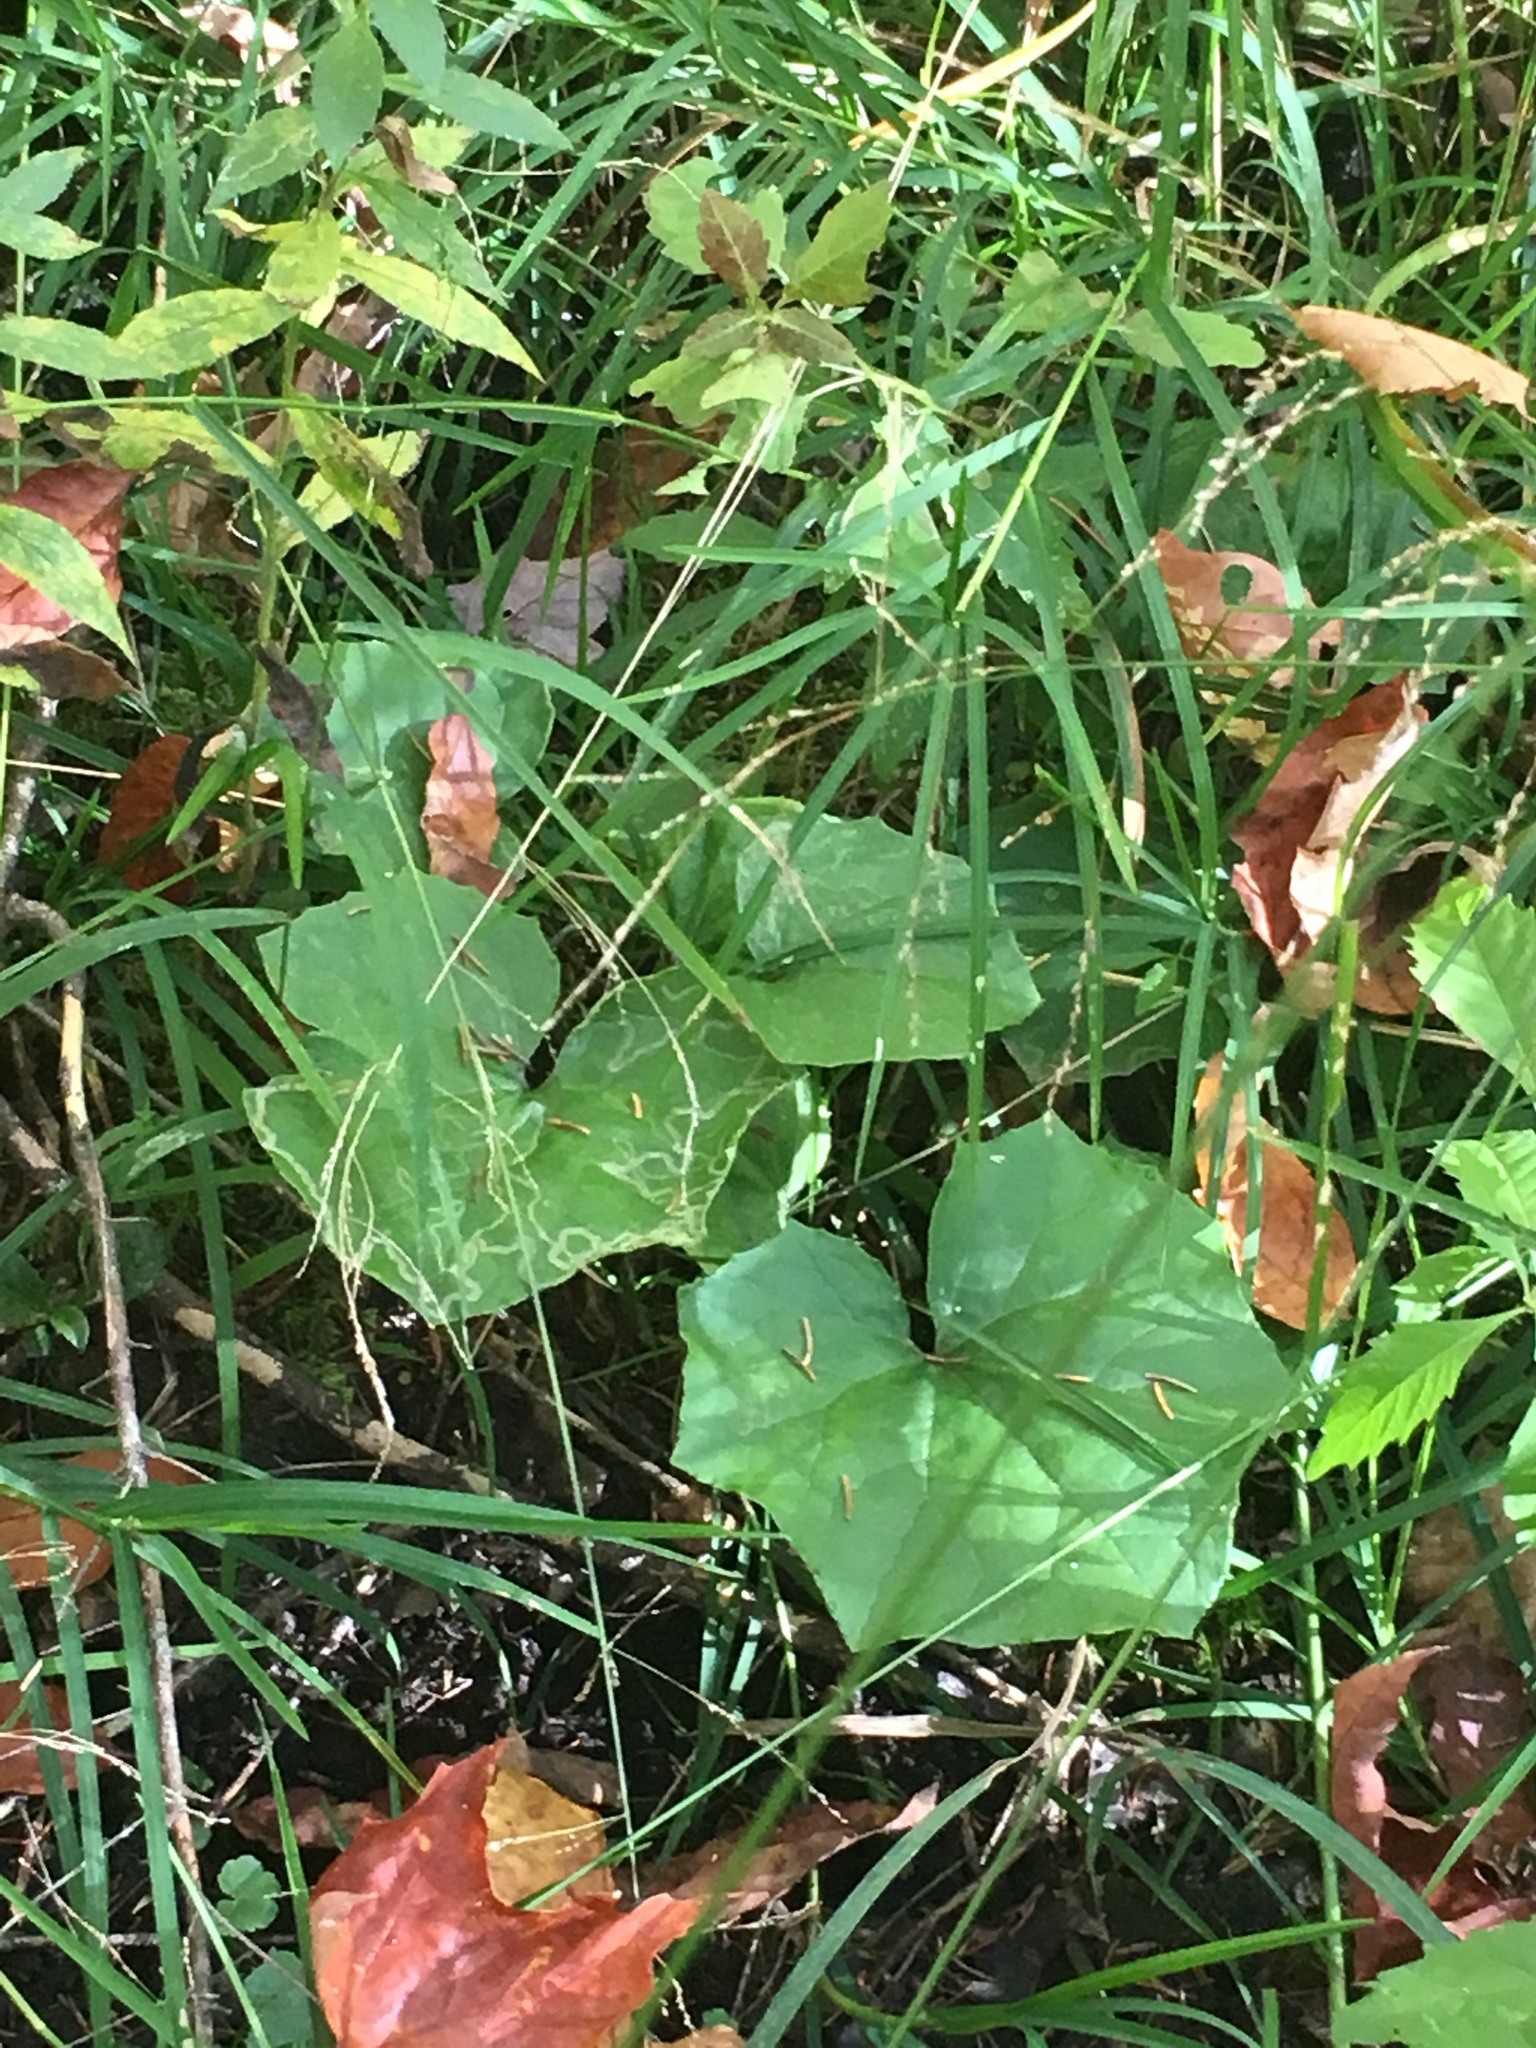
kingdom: Plantae
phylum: Tracheophyta
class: Magnoliopsida
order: Asterales
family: Asteraceae
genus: Tussilago
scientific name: Tussilago farfara
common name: Coltsfoot
